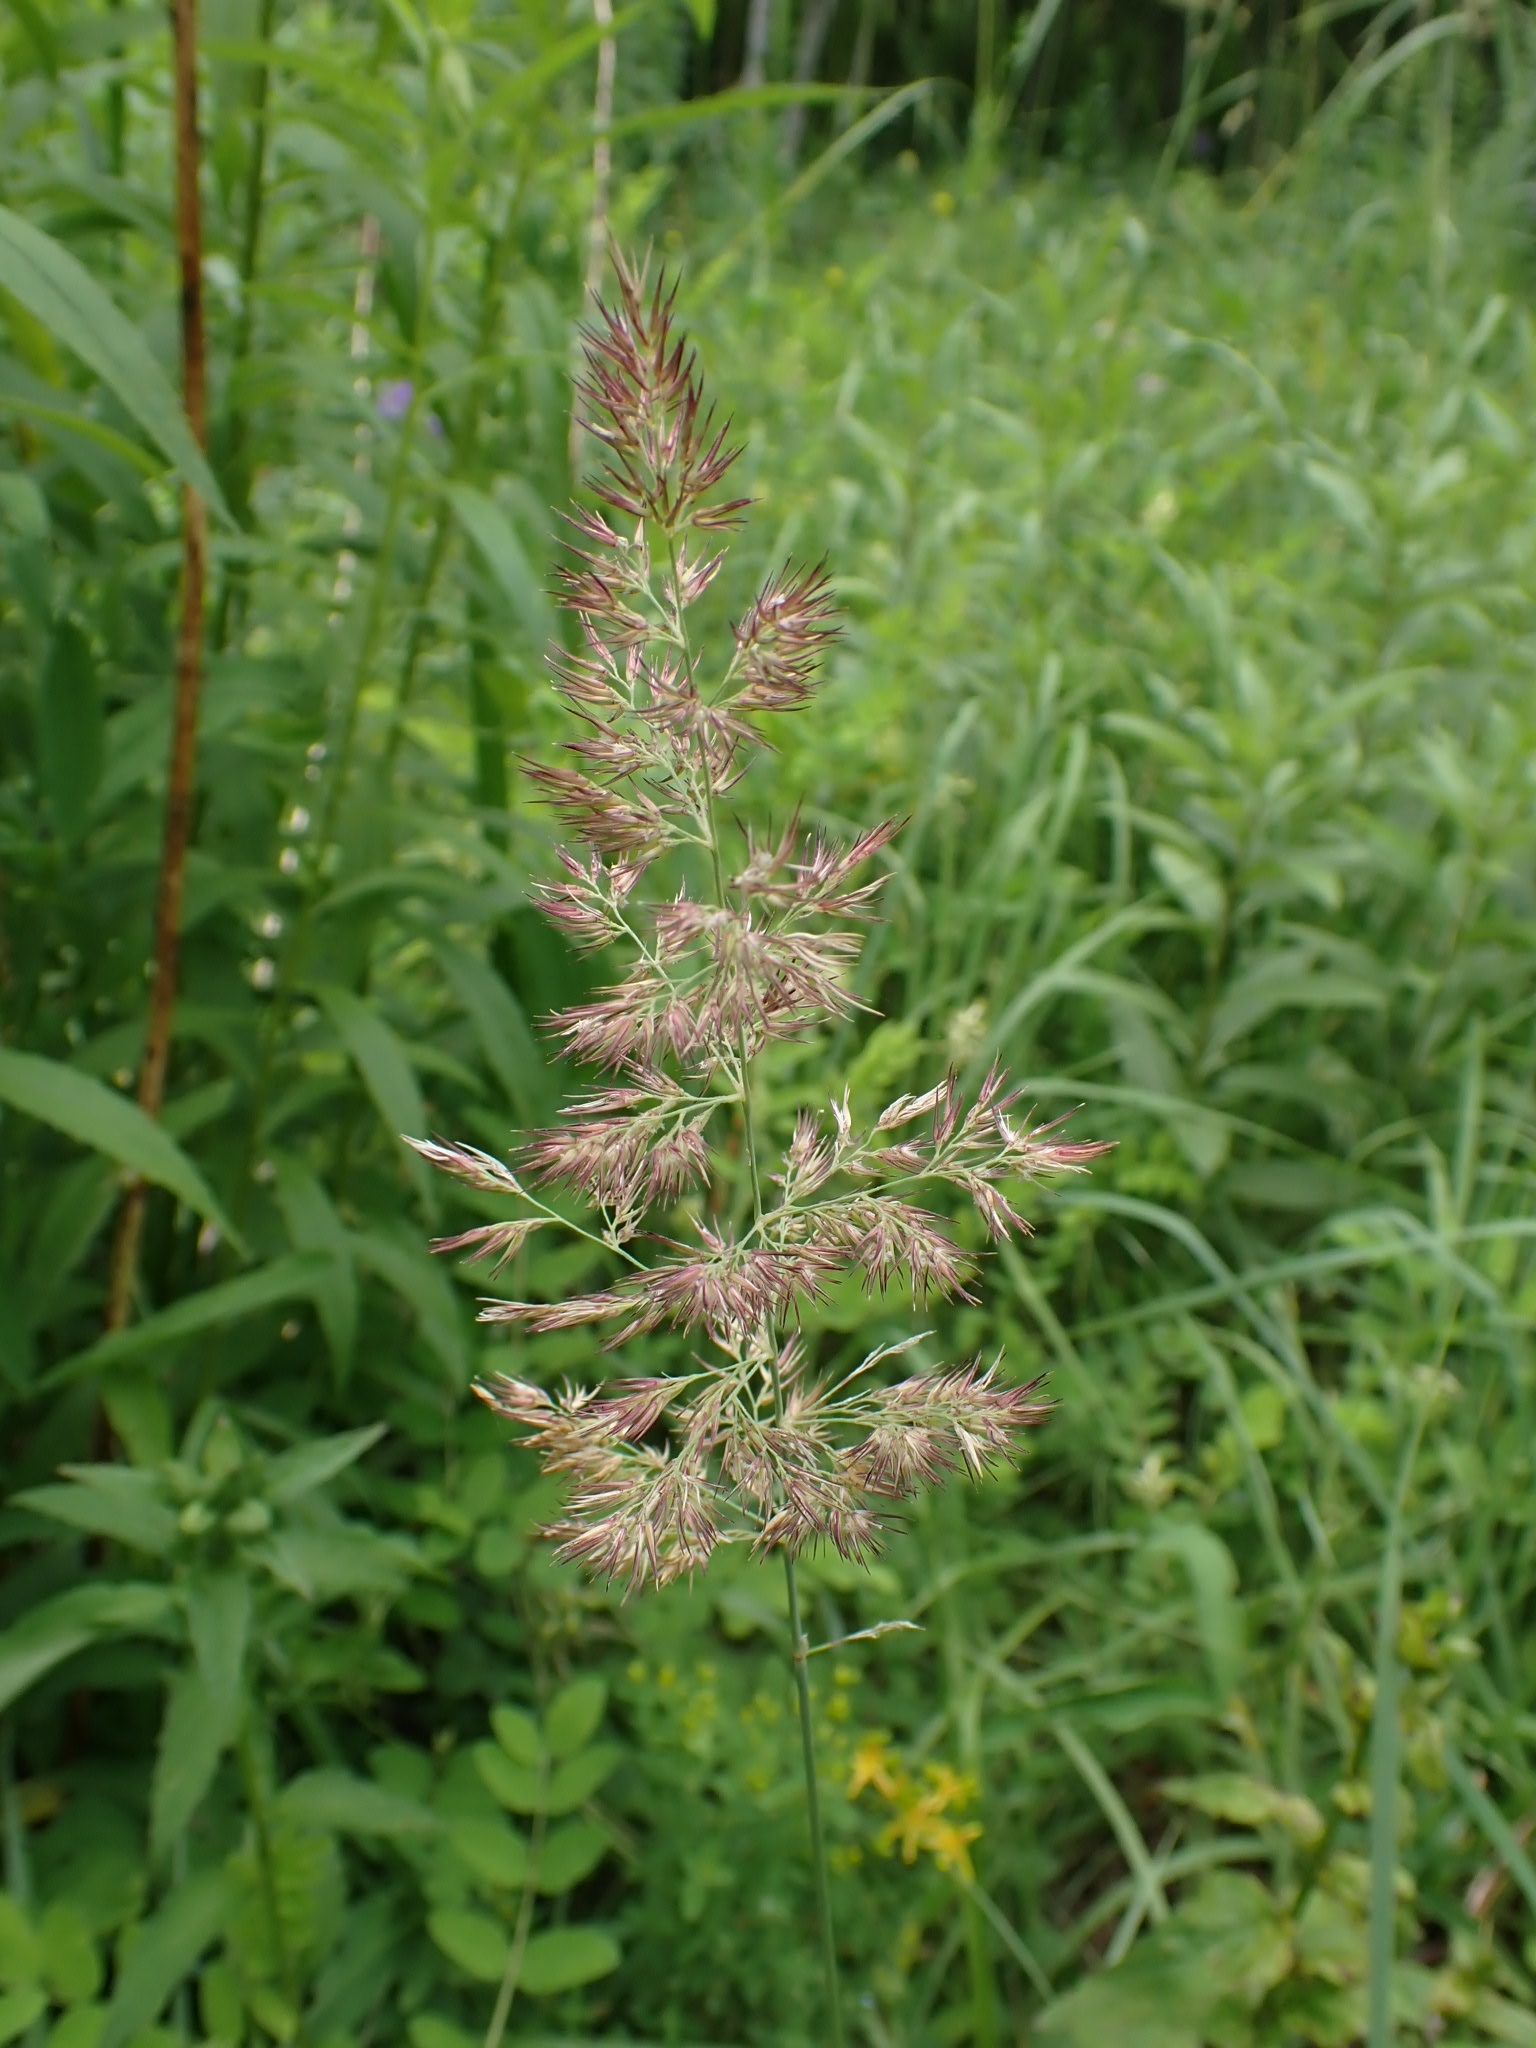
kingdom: Plantae
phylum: Tracheophyta
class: Liliopsida
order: Poales
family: Poaceae
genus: Calamagrostis
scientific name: Calamagrostis epigejos
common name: Wood small-reed
